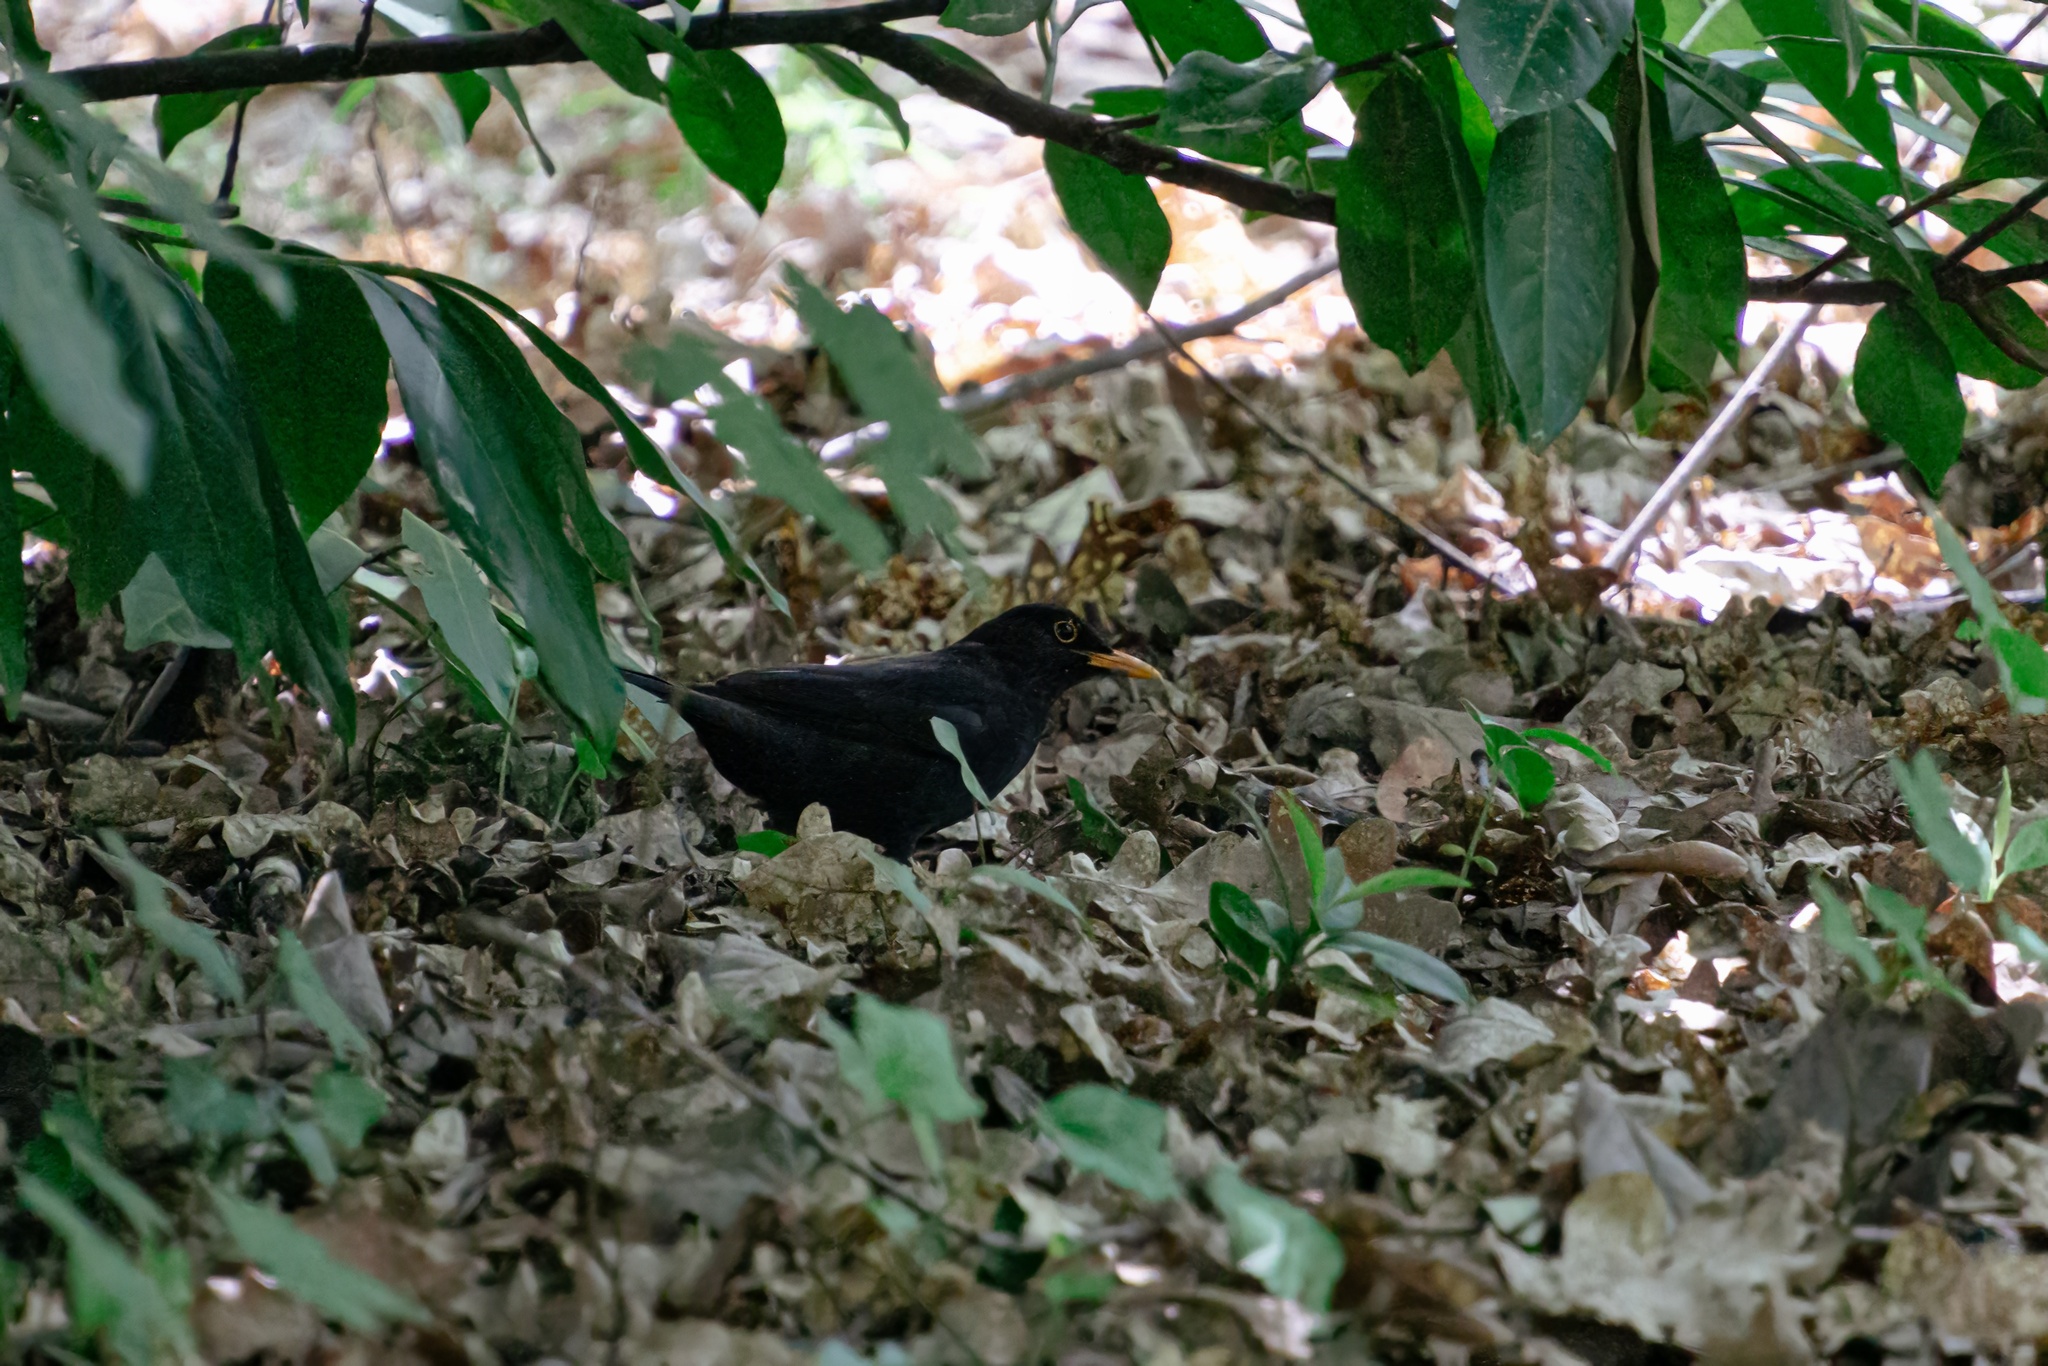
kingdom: Animalia
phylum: Chordata
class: Aves
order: Passeriformes
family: Turdidae
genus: Turdus
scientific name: Turdus merula
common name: Common blackbird
